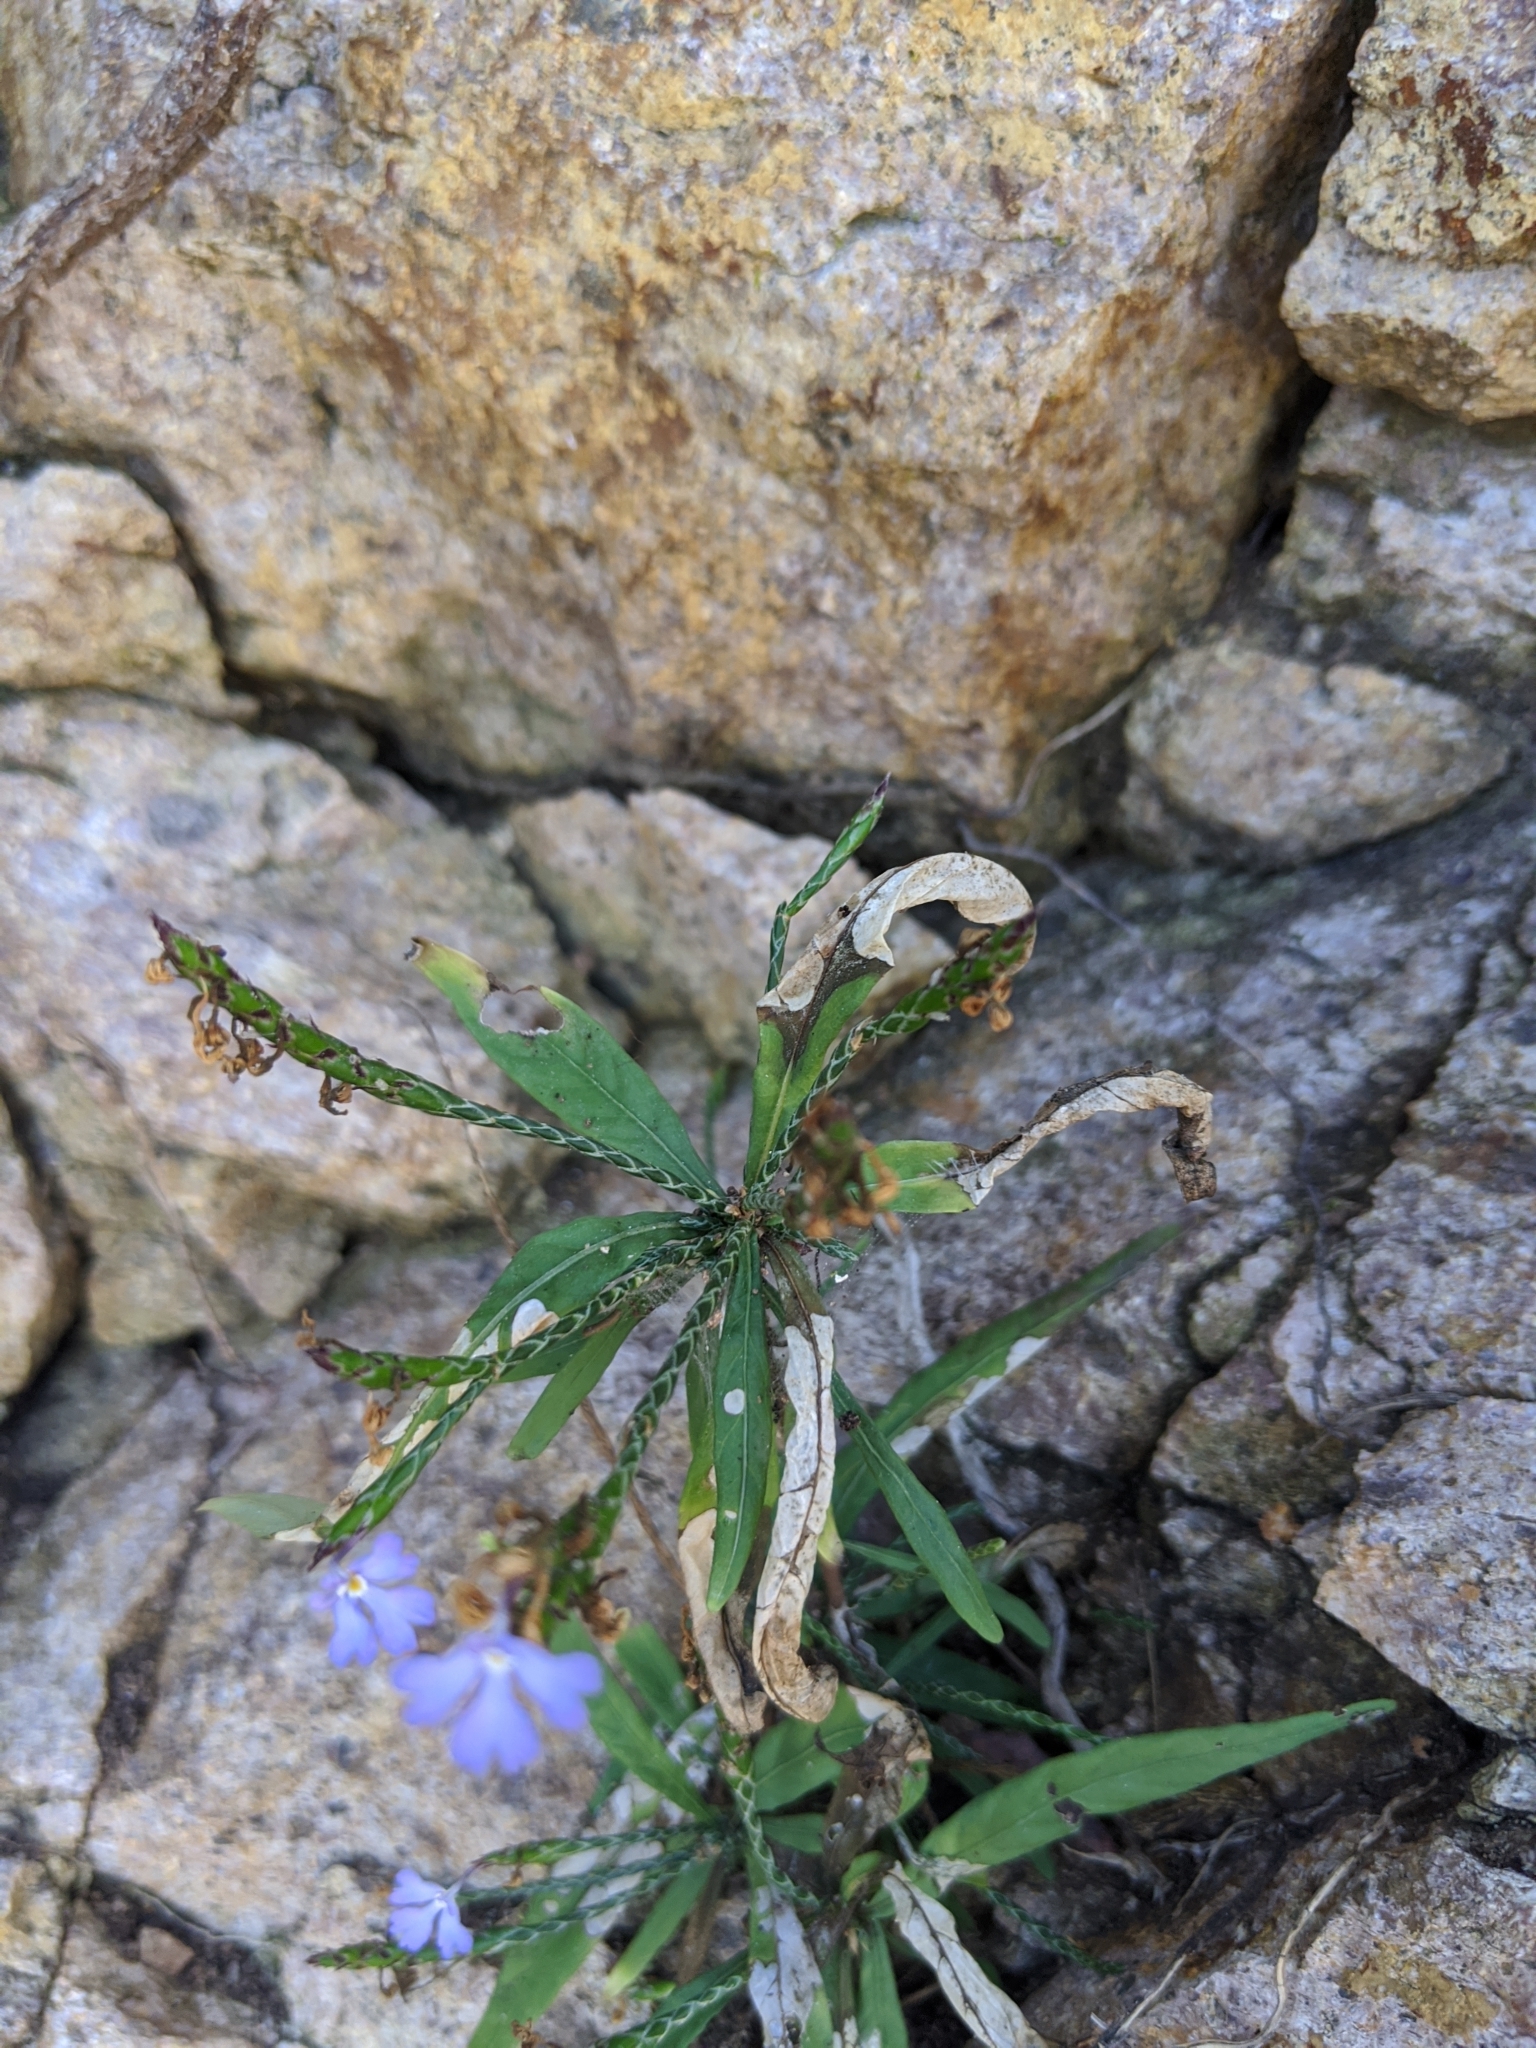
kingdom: Plantae
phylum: Tracheophyta
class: Magnoliopsida
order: Lamiales
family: Acanthaceae
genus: Elytraria
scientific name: Elytraria imbricata
